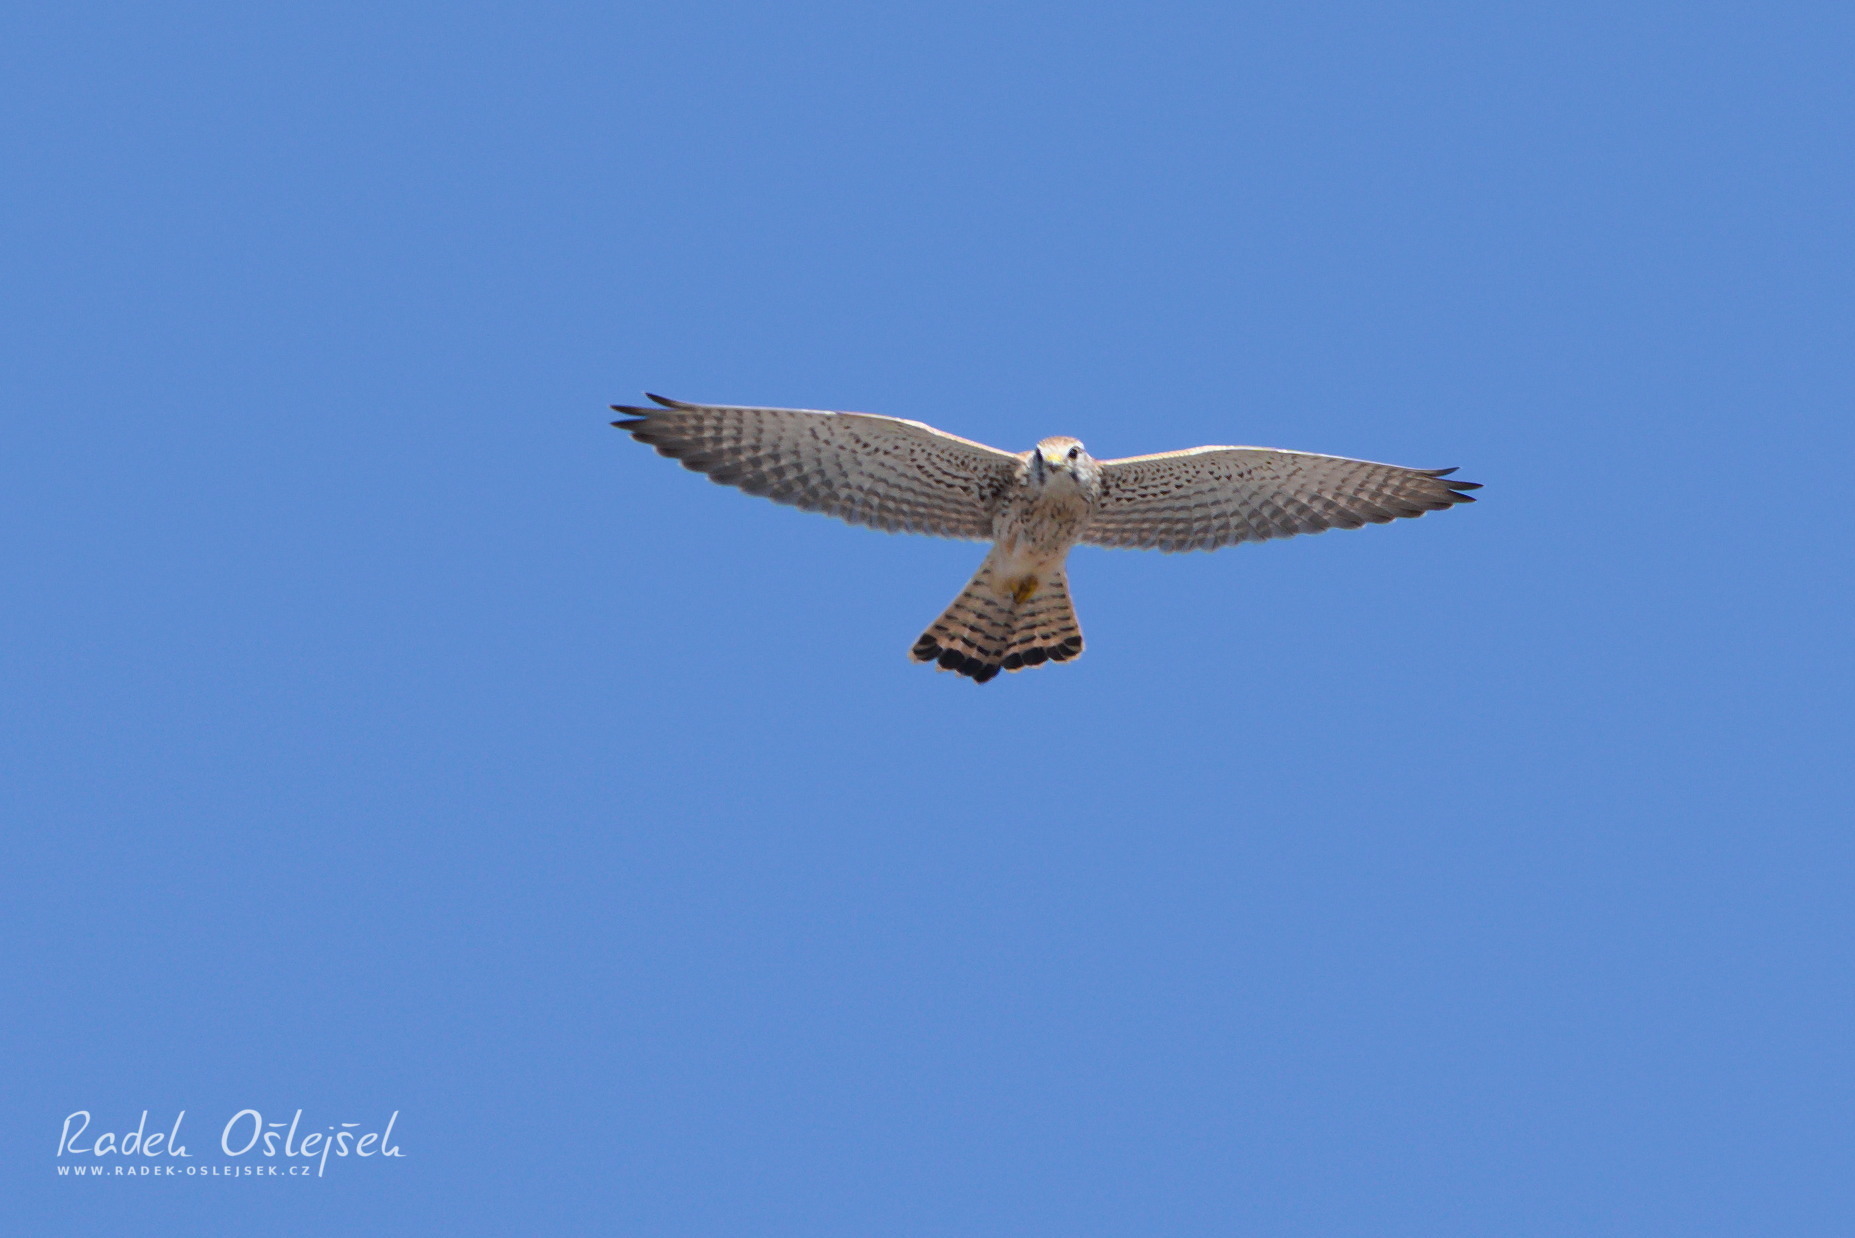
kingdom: Animalia
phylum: Chordata
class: Aves
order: Falconiformes
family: Falconidae
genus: Falco
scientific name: Falco tinnunculus
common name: Common kestrel
